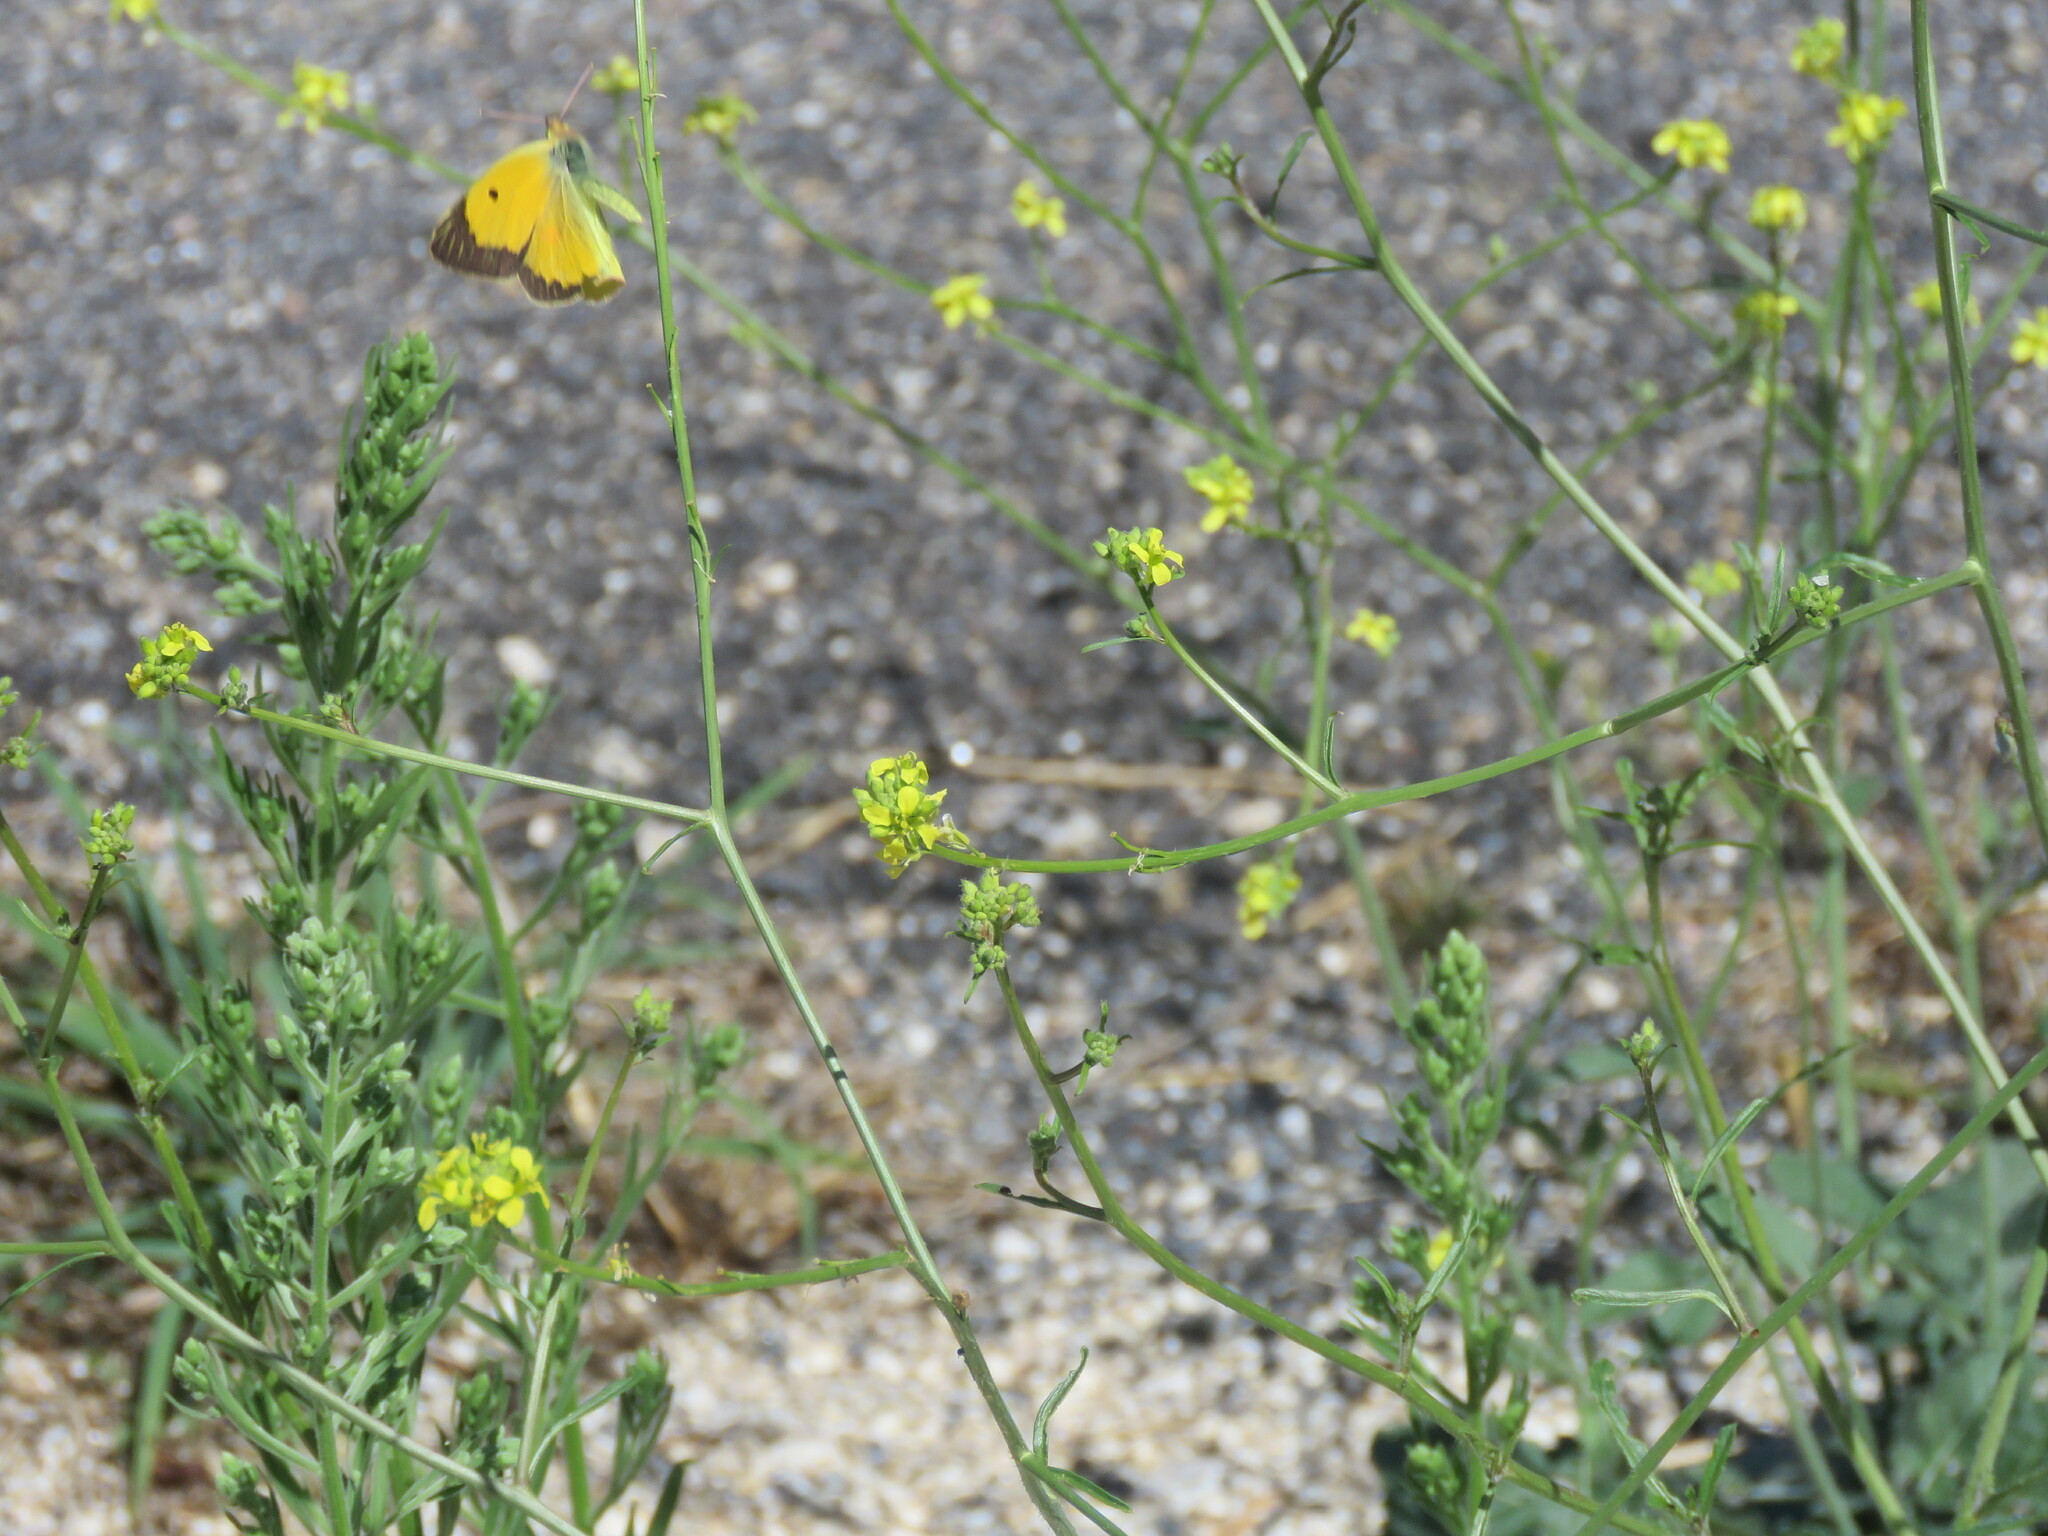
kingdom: Animalia
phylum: Arthropoda
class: Insecta
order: Lepidoptera
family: Pieridae
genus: Colias
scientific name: Colias croceus
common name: Clouded yellow
